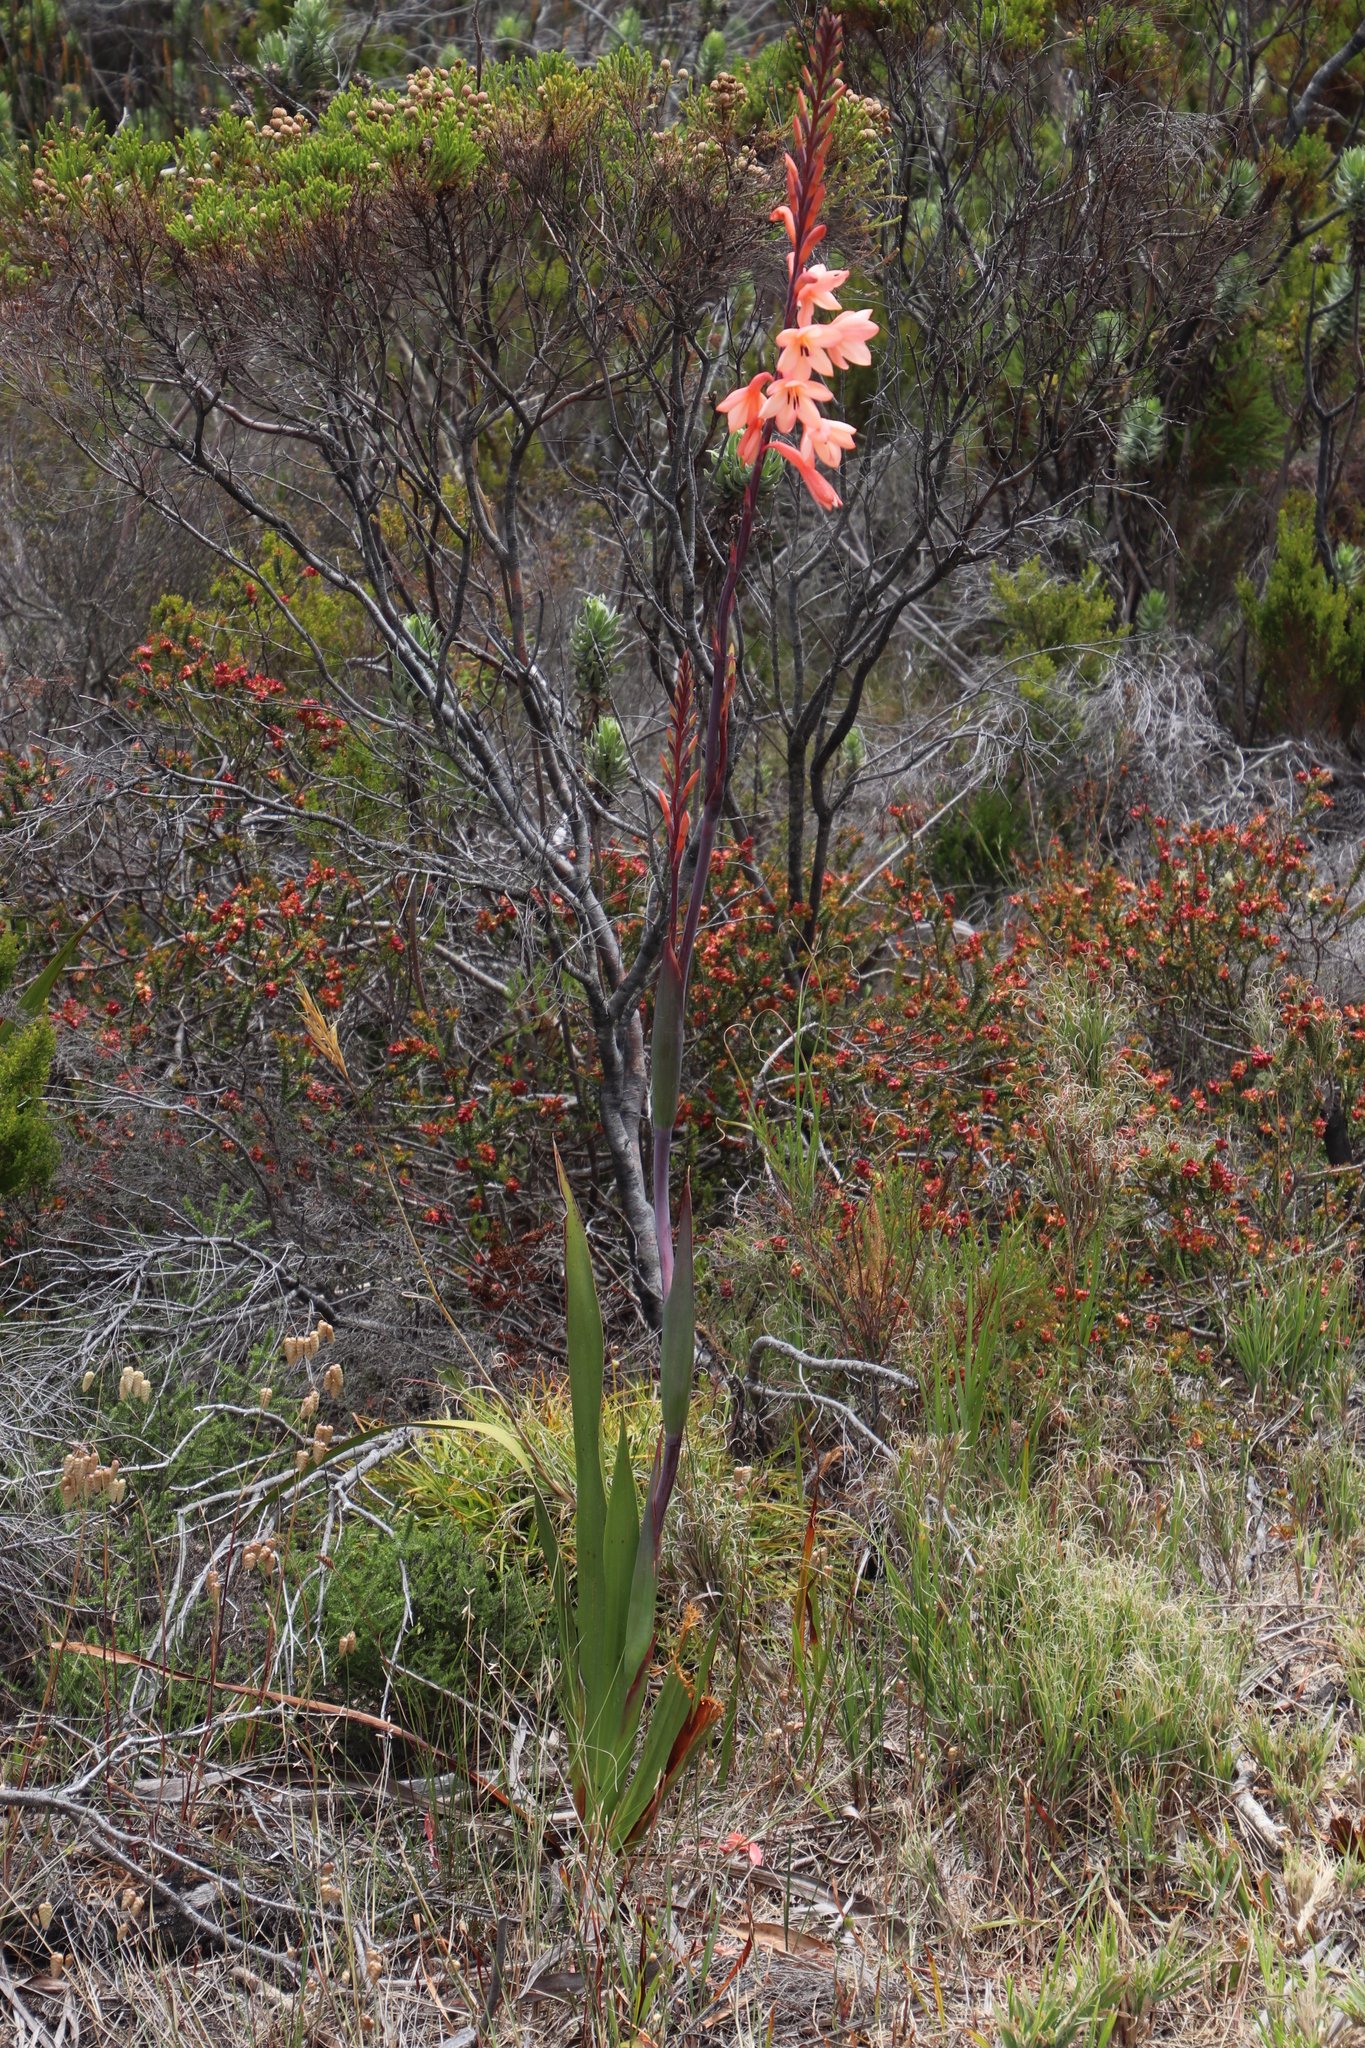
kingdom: Plantae
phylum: Tracheophyta
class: Liliopsida
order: Asparagales
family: Iridaceae
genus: Watsonia
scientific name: Watsonia tabularis
